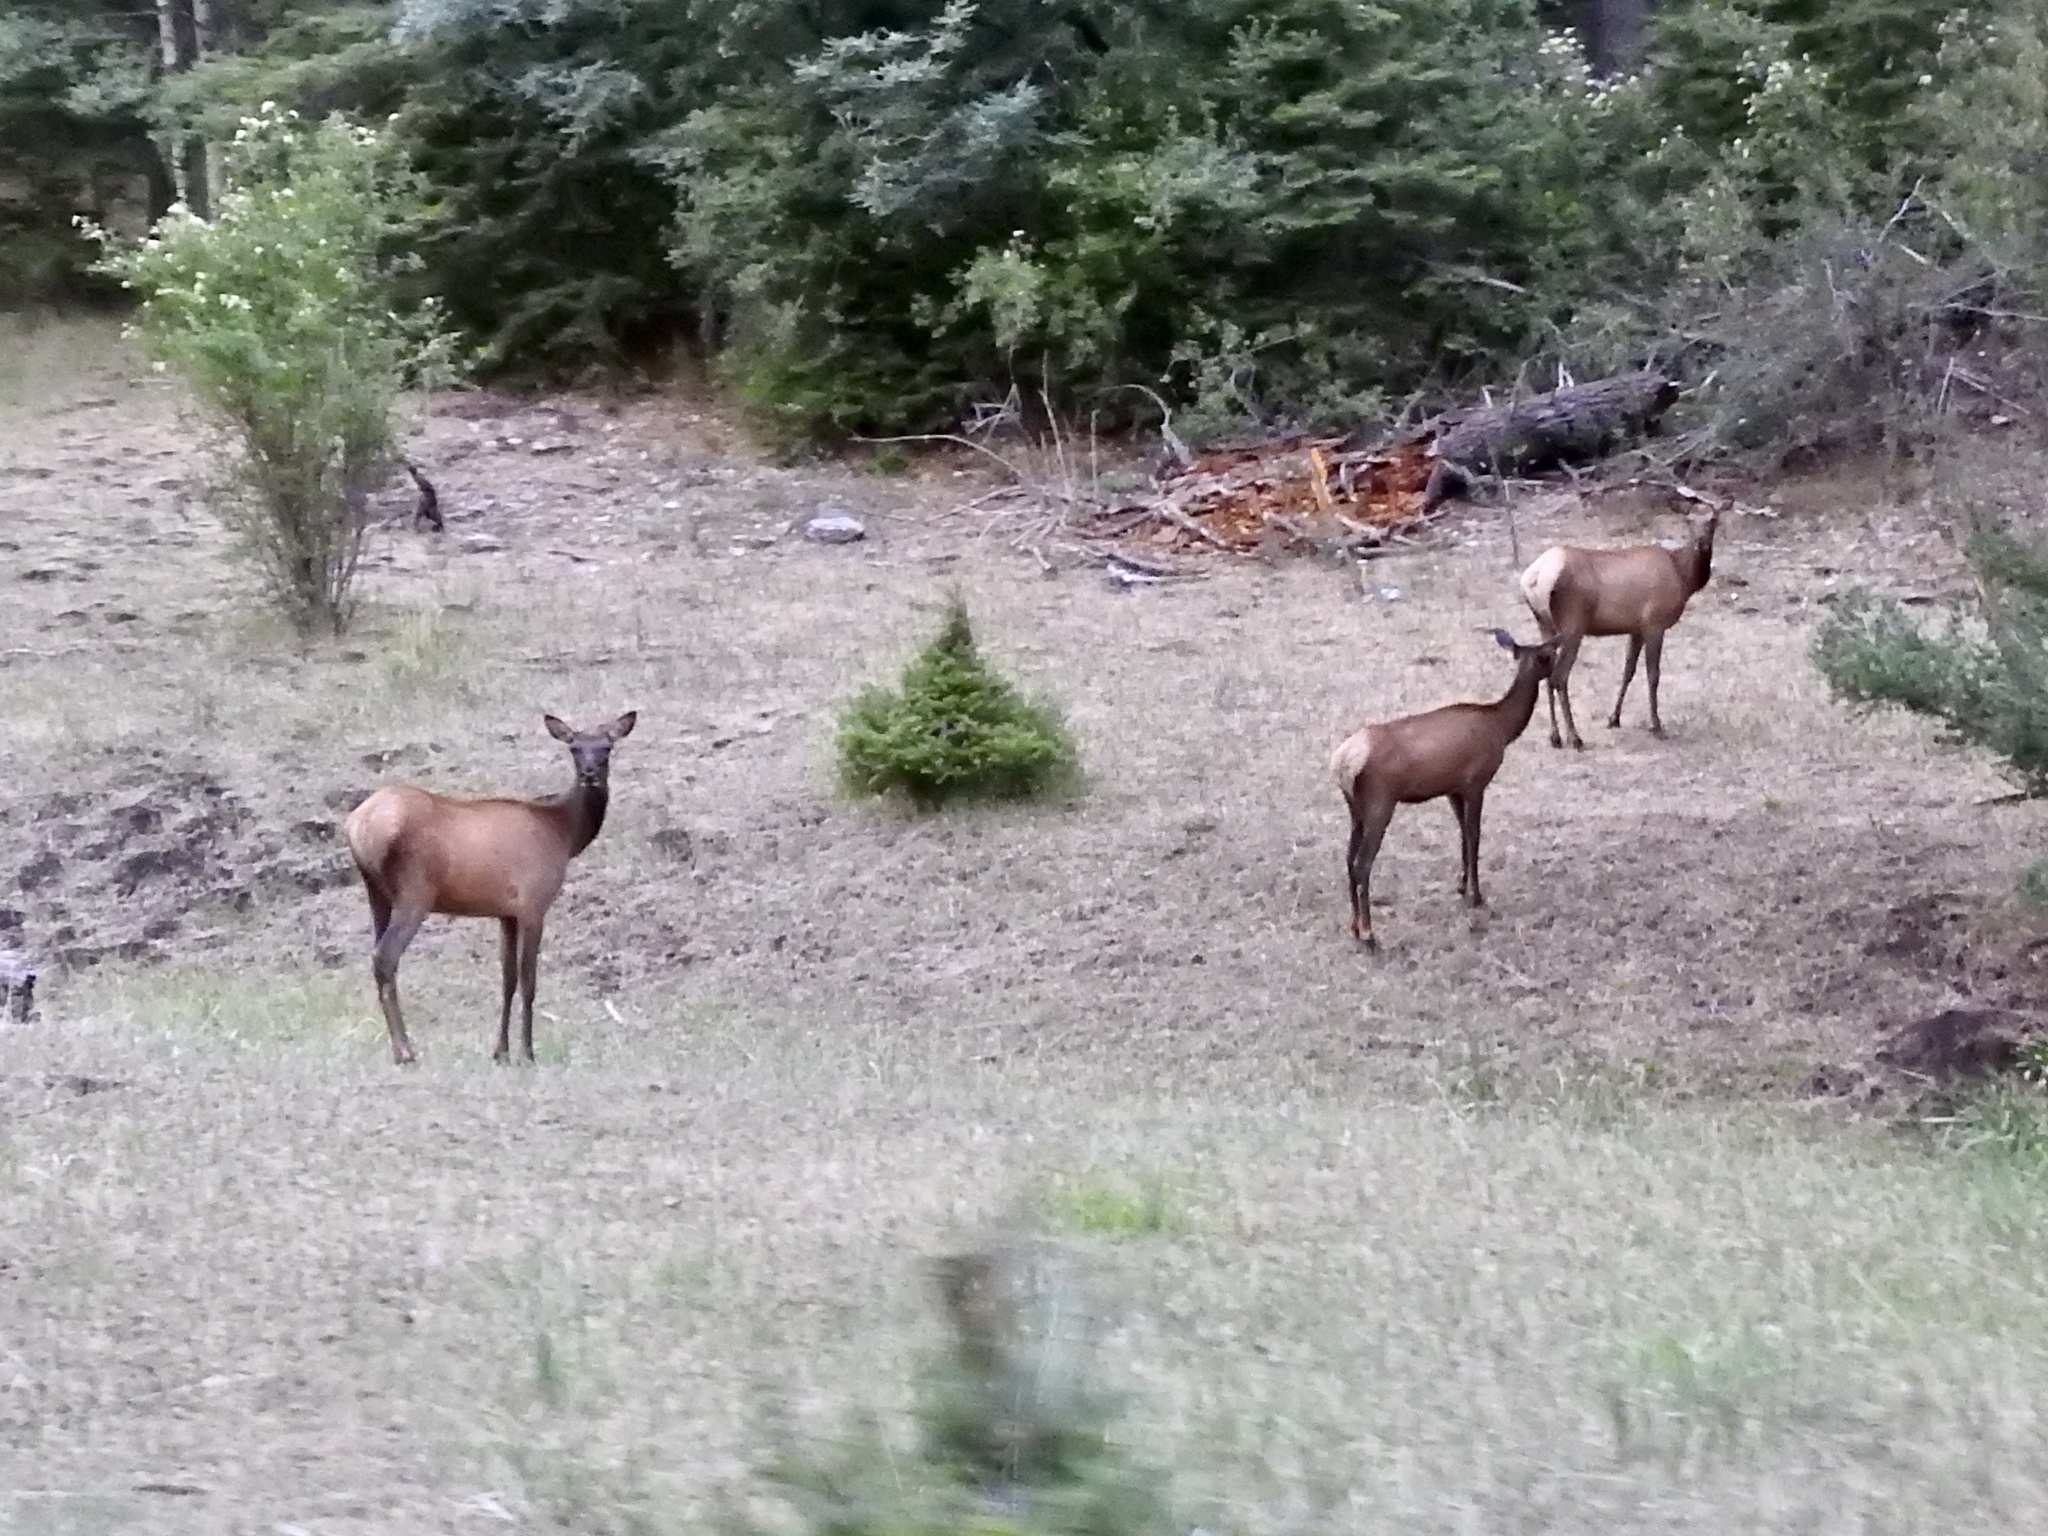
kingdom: Animalia
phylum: Chordata
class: Mammalia
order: Artiodactyla
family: Cervidae
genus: Cervus
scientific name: Cervus elaphus
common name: Red deer
